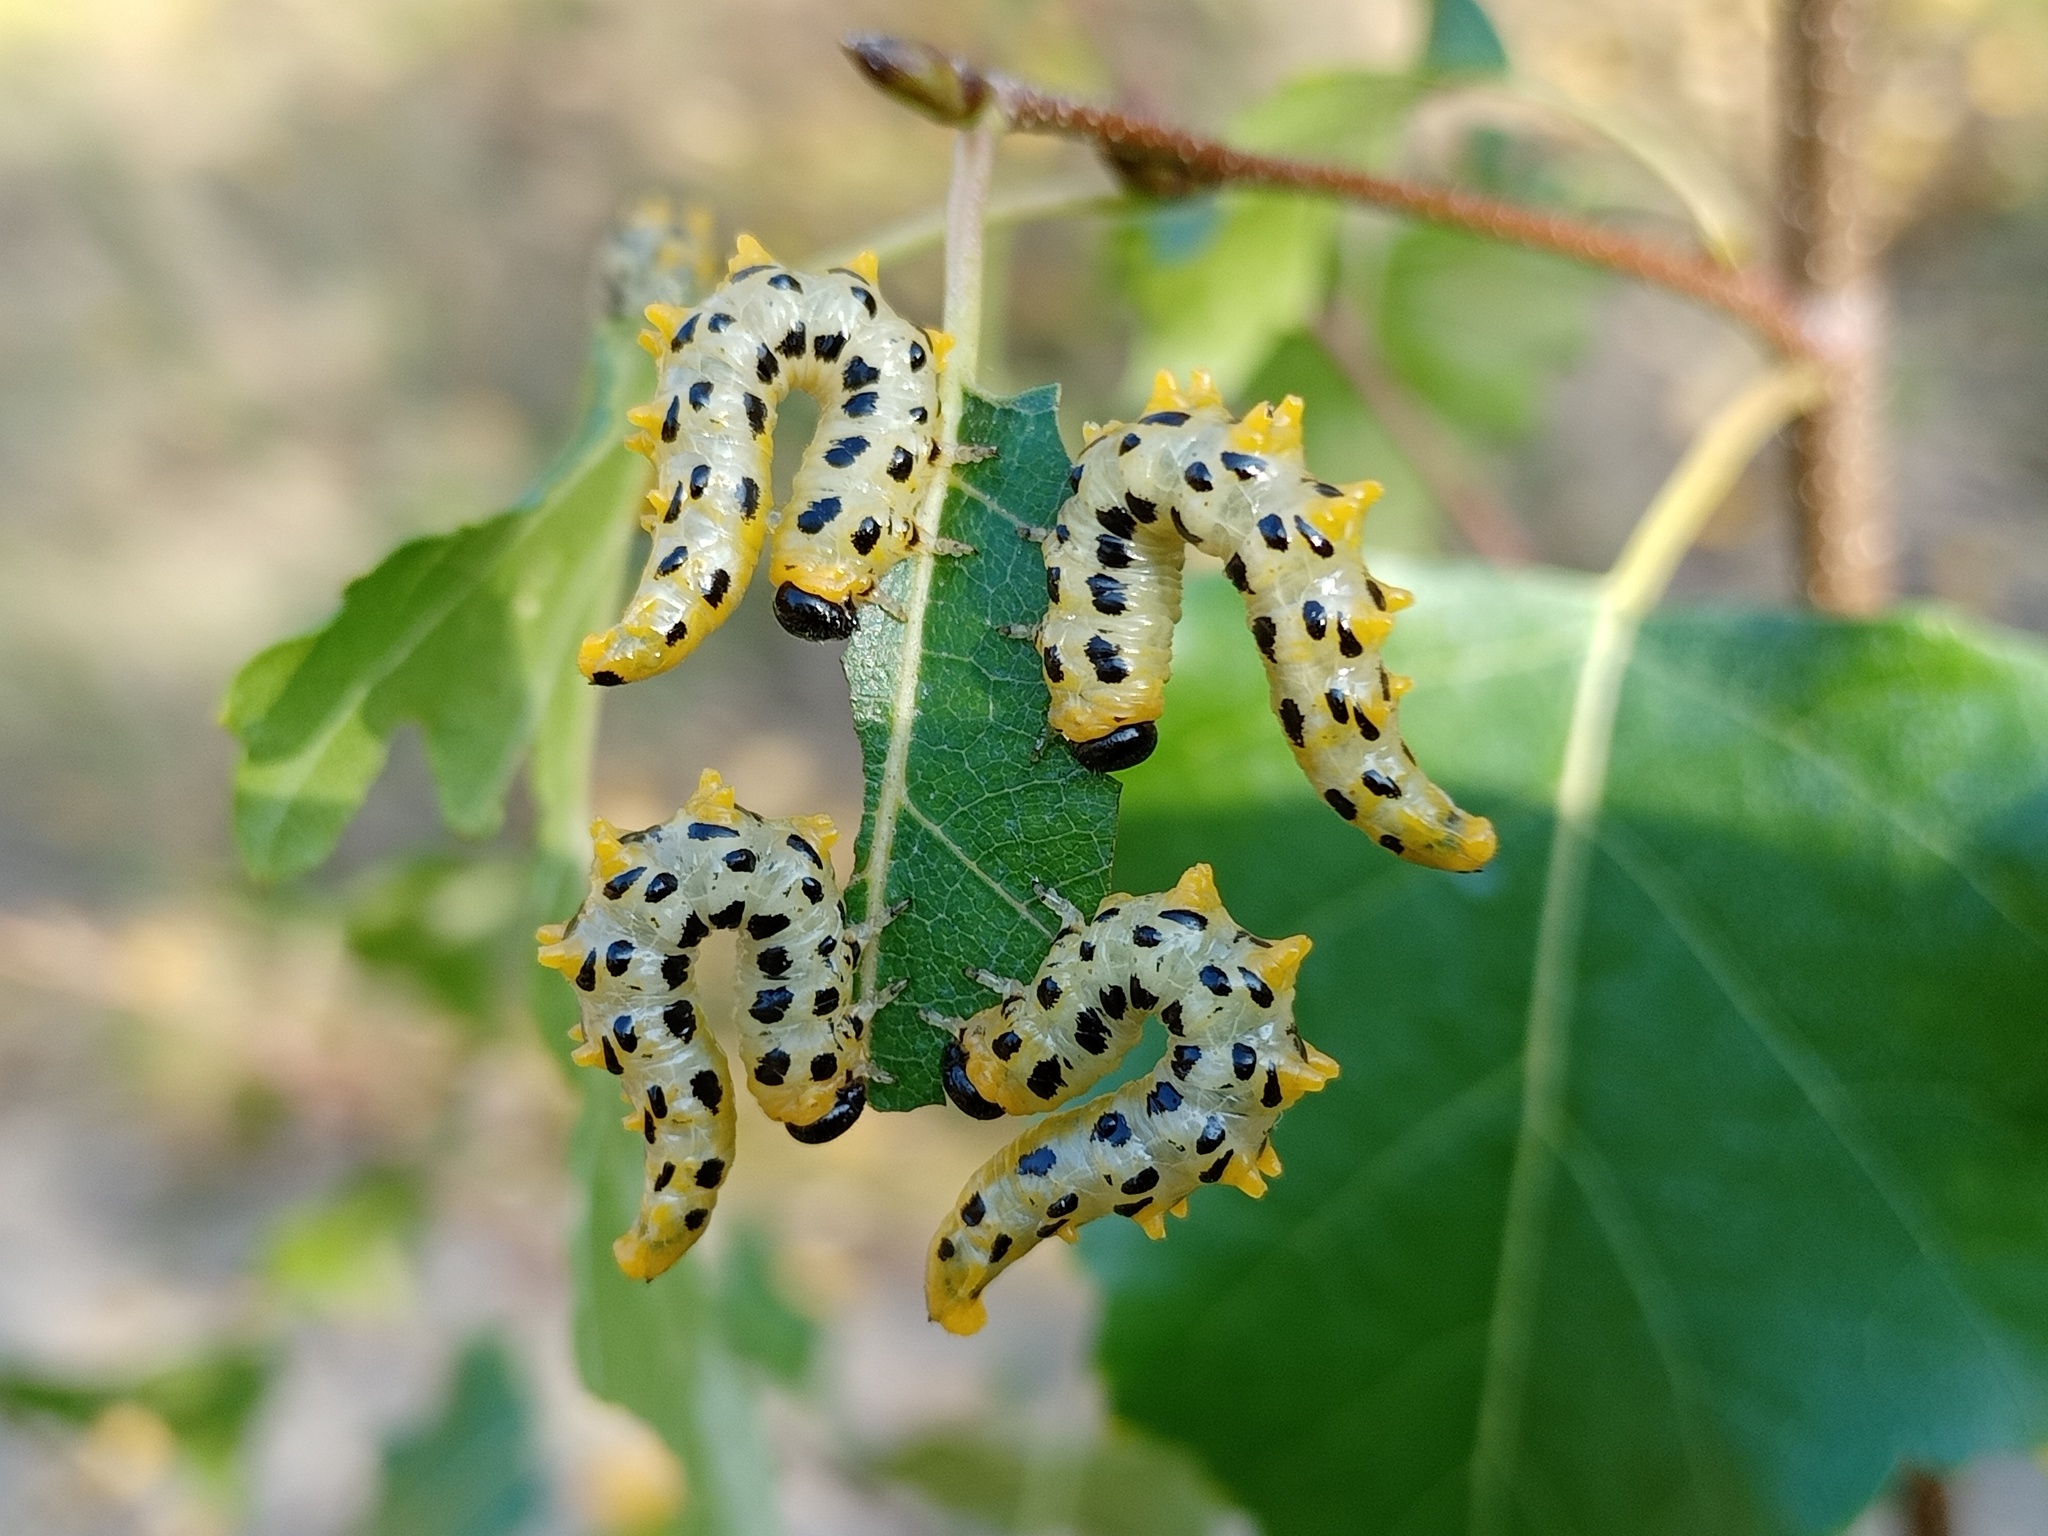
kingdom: Animalia
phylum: Arthropoda
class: Insecta
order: Hymenoptera
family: Tenthredinidae
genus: Craesus
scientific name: Craesus septentrionalis
